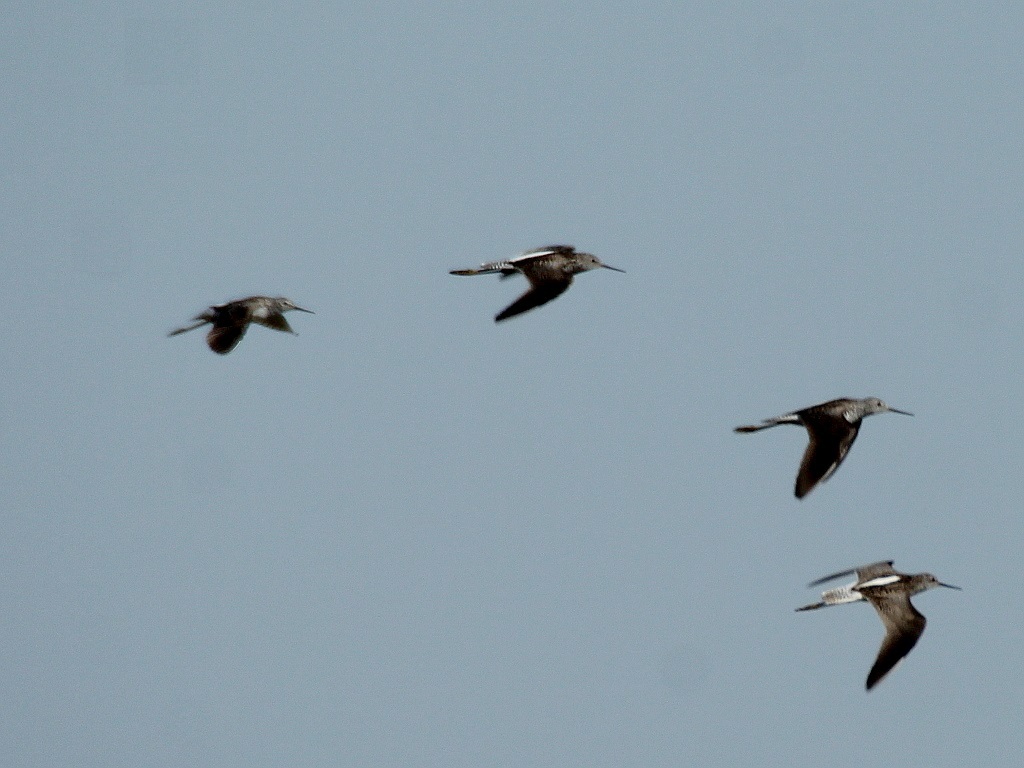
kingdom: Animalia
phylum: Chordata
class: Aves
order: Charadriiformes
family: Scolopacidae
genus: Tringa
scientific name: Tringa stagnatilis
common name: Marsh sandpiper
